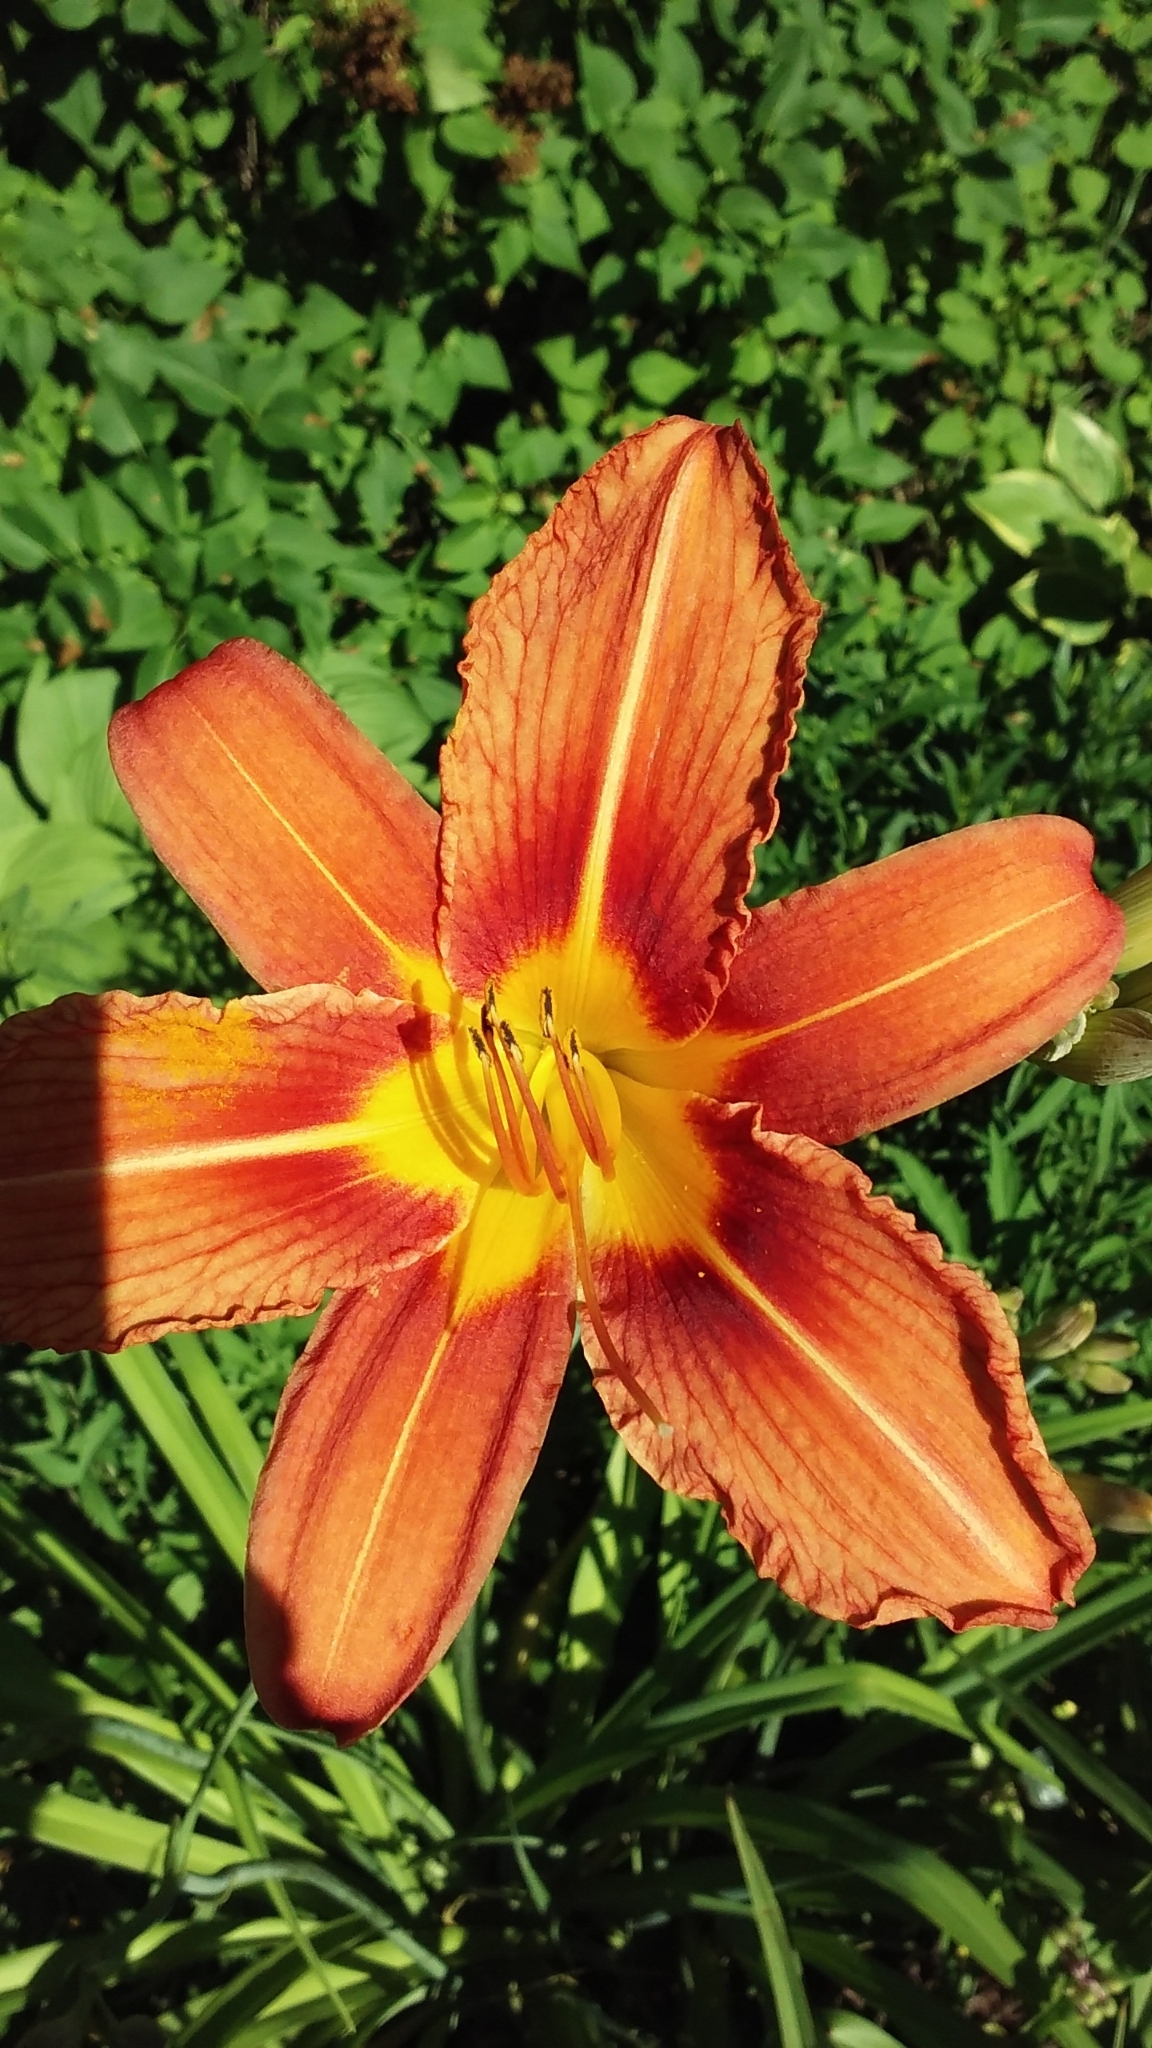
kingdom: Plantae
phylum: Tracheophyta
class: Liliopsida
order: Asparagales
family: Asphodelaceae
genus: Hemerocallis
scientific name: Hemerocallis fulva
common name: Orange day-lily
